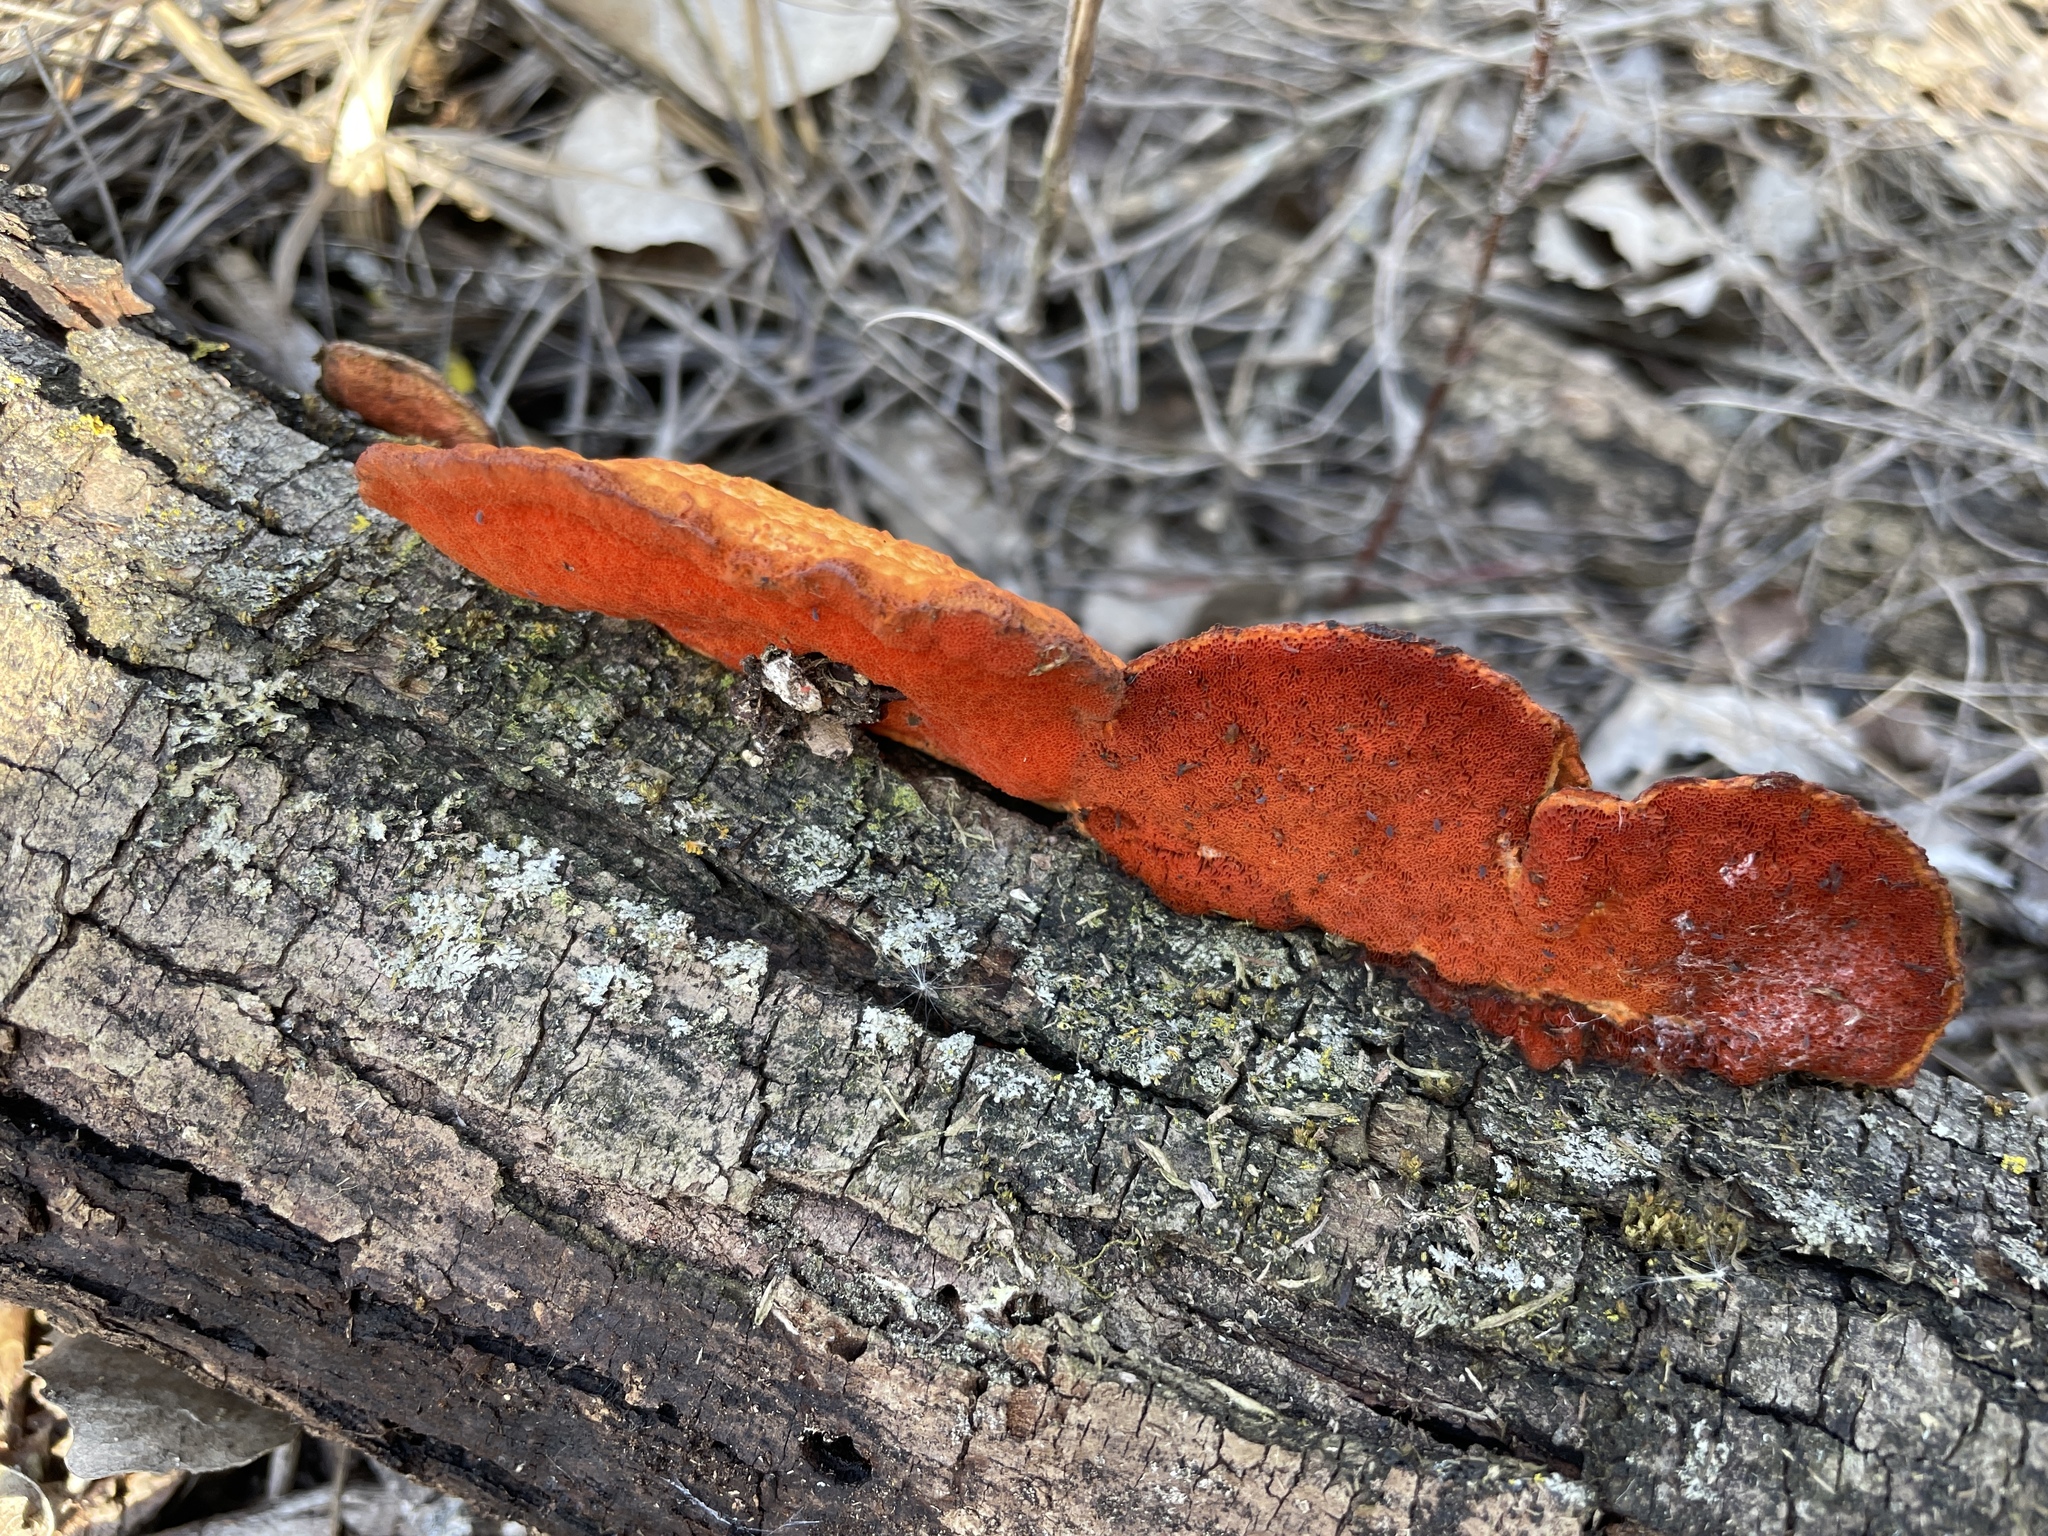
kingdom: Fungi
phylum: Basidiomycota
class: Agaricomycetes
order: Polyporales
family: Polyporaceae
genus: Trametes
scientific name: Trametes cinnabarina
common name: Northern cinnabar polypore
